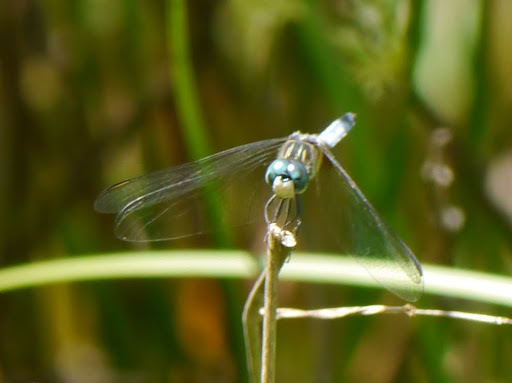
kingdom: Animalia
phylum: Arthropoda
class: Insecta
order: Odonata
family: Libellulidae
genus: Pachydiplax
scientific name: Pachydiplax longipennis
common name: Blue dasher
